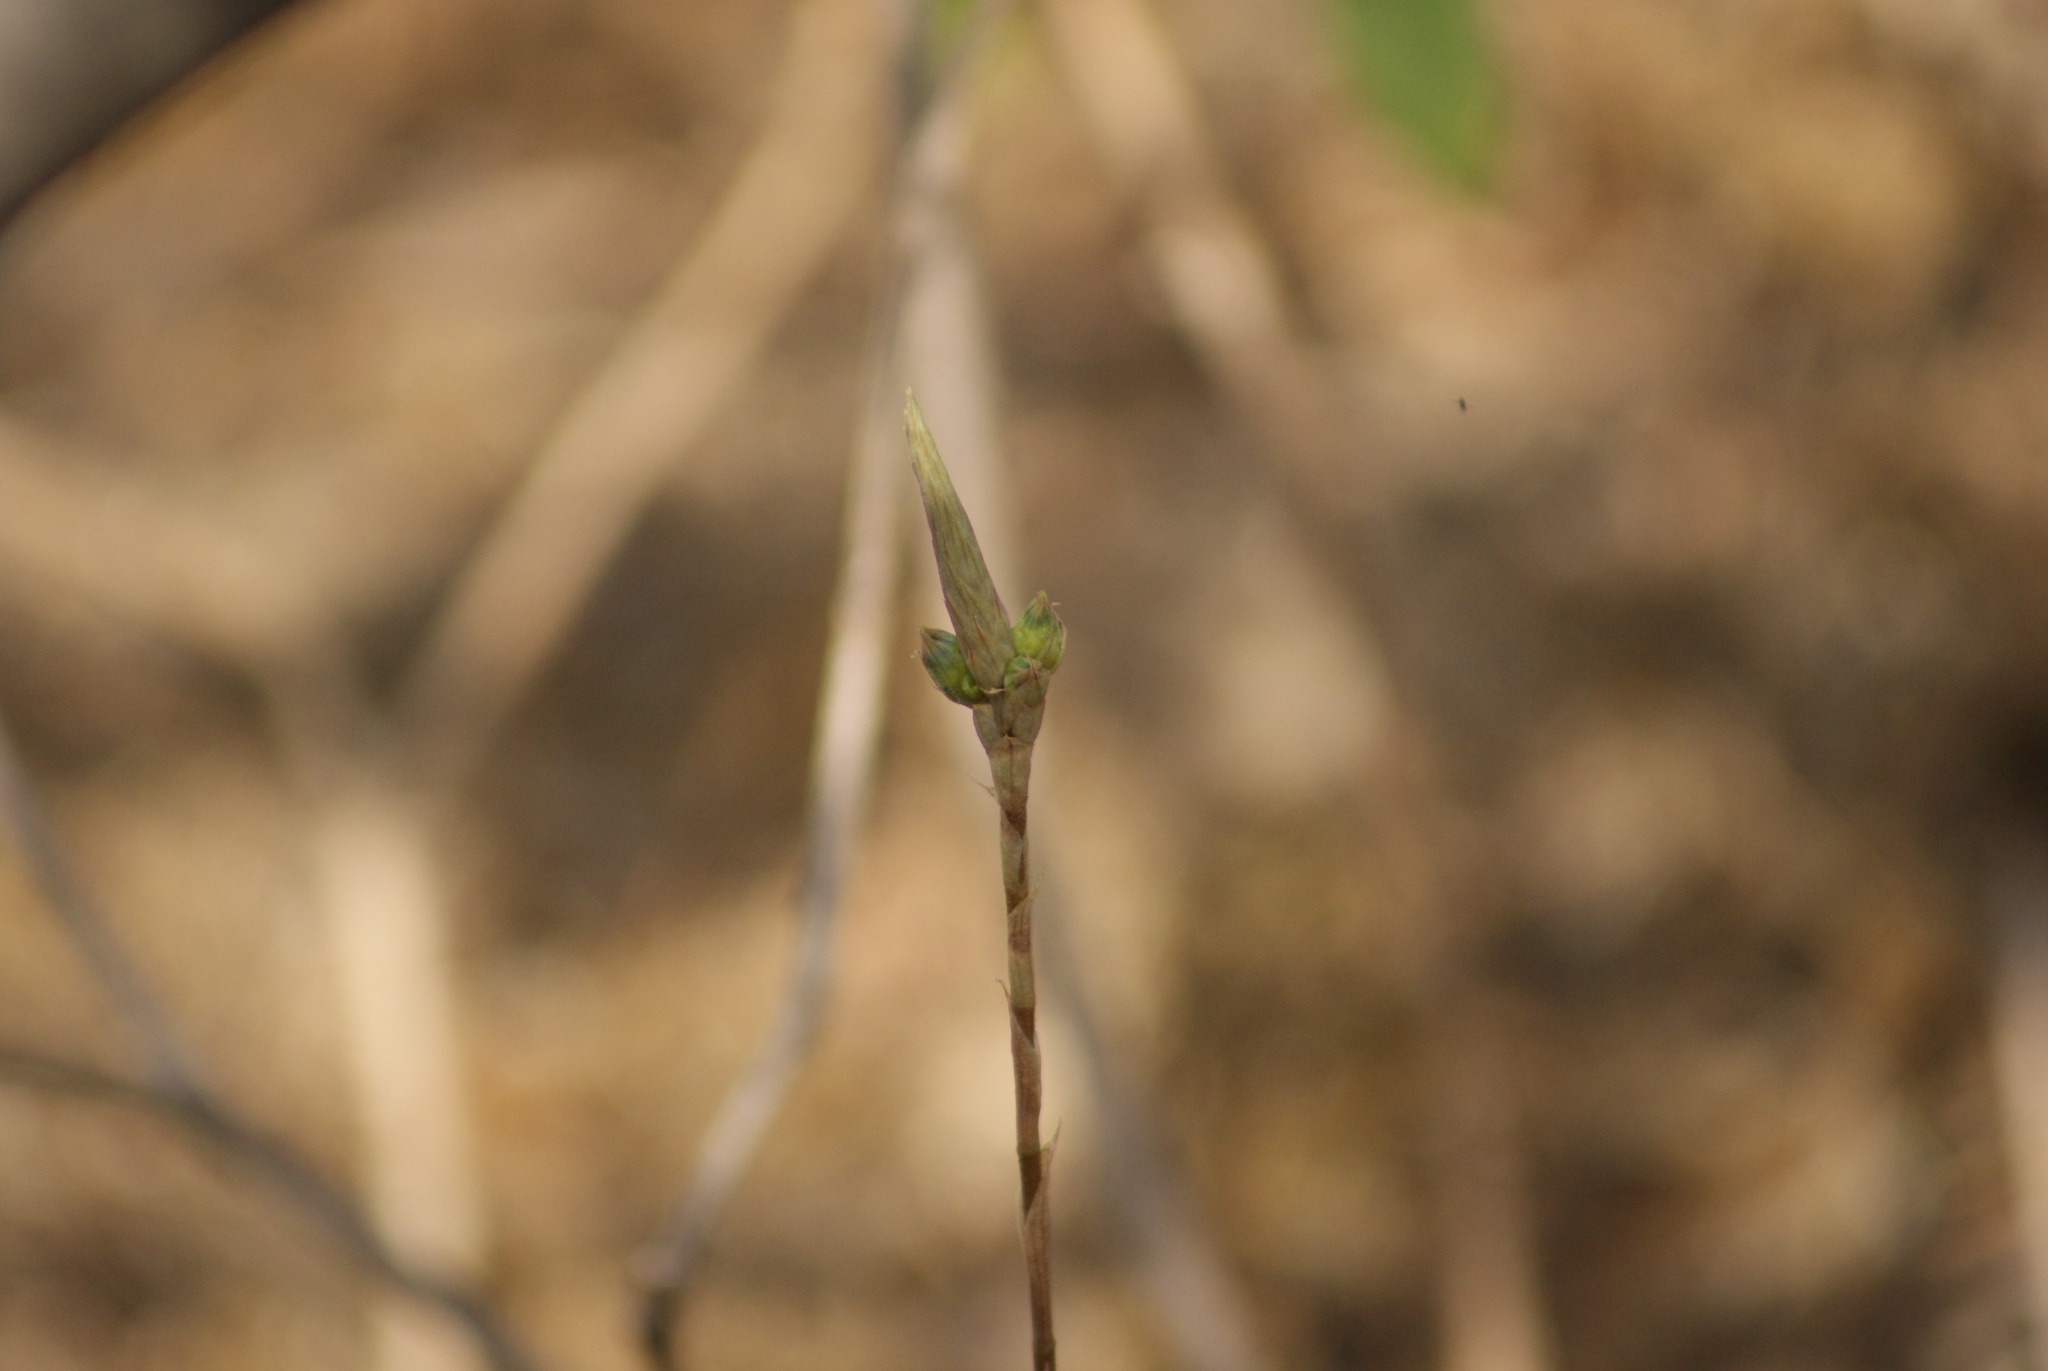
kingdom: Plantae
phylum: Tracheophyta
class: Liliopsida
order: Asparagales
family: Orchidaceae
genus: Aulosepalum
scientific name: Aulosepalum pyramidale
